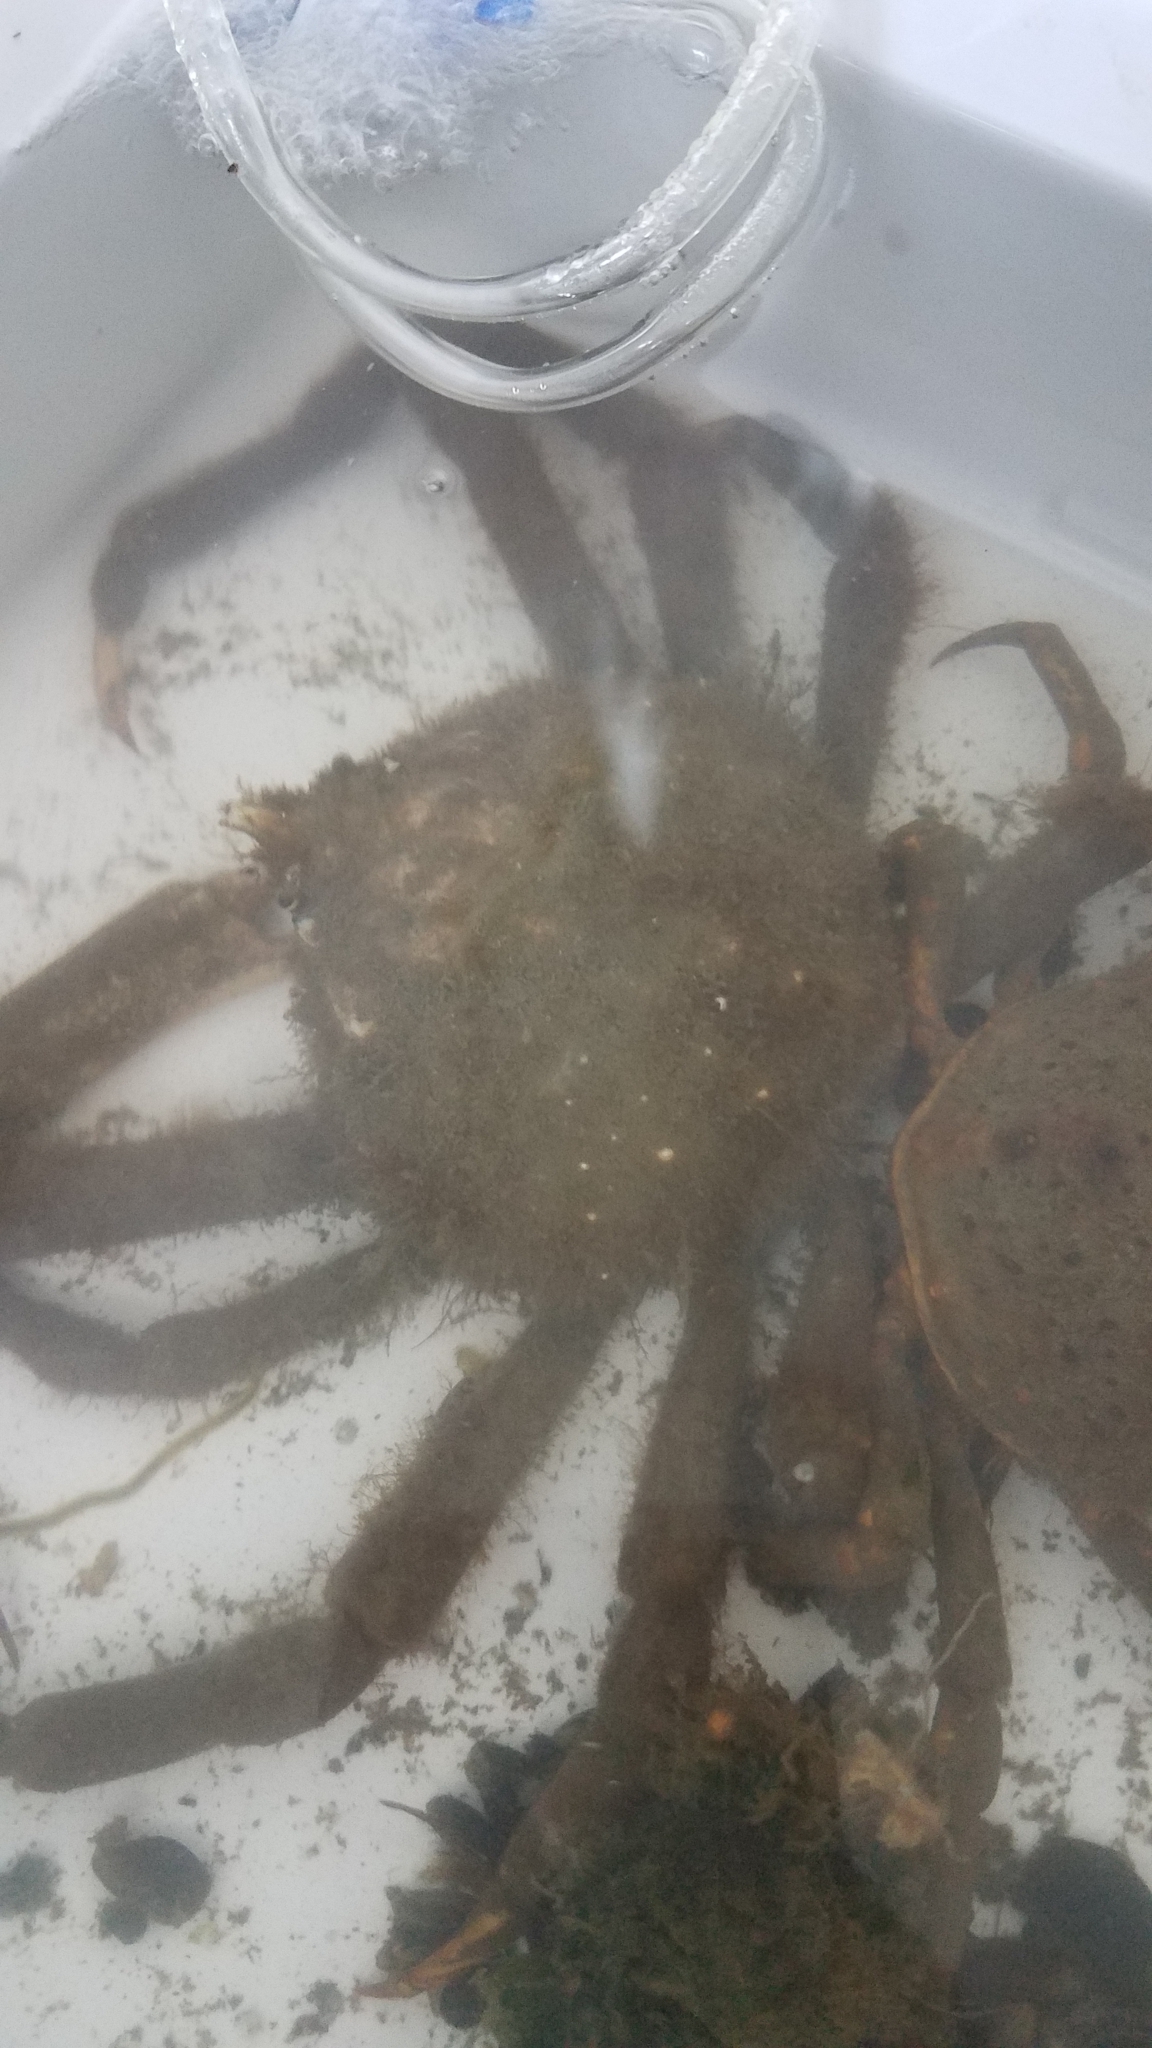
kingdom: Animalia
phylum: Arthropoda
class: Malacostraca
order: Decapoda
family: Epialtidae
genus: Libinia
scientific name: Libinia emarginata
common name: Common spider crab
